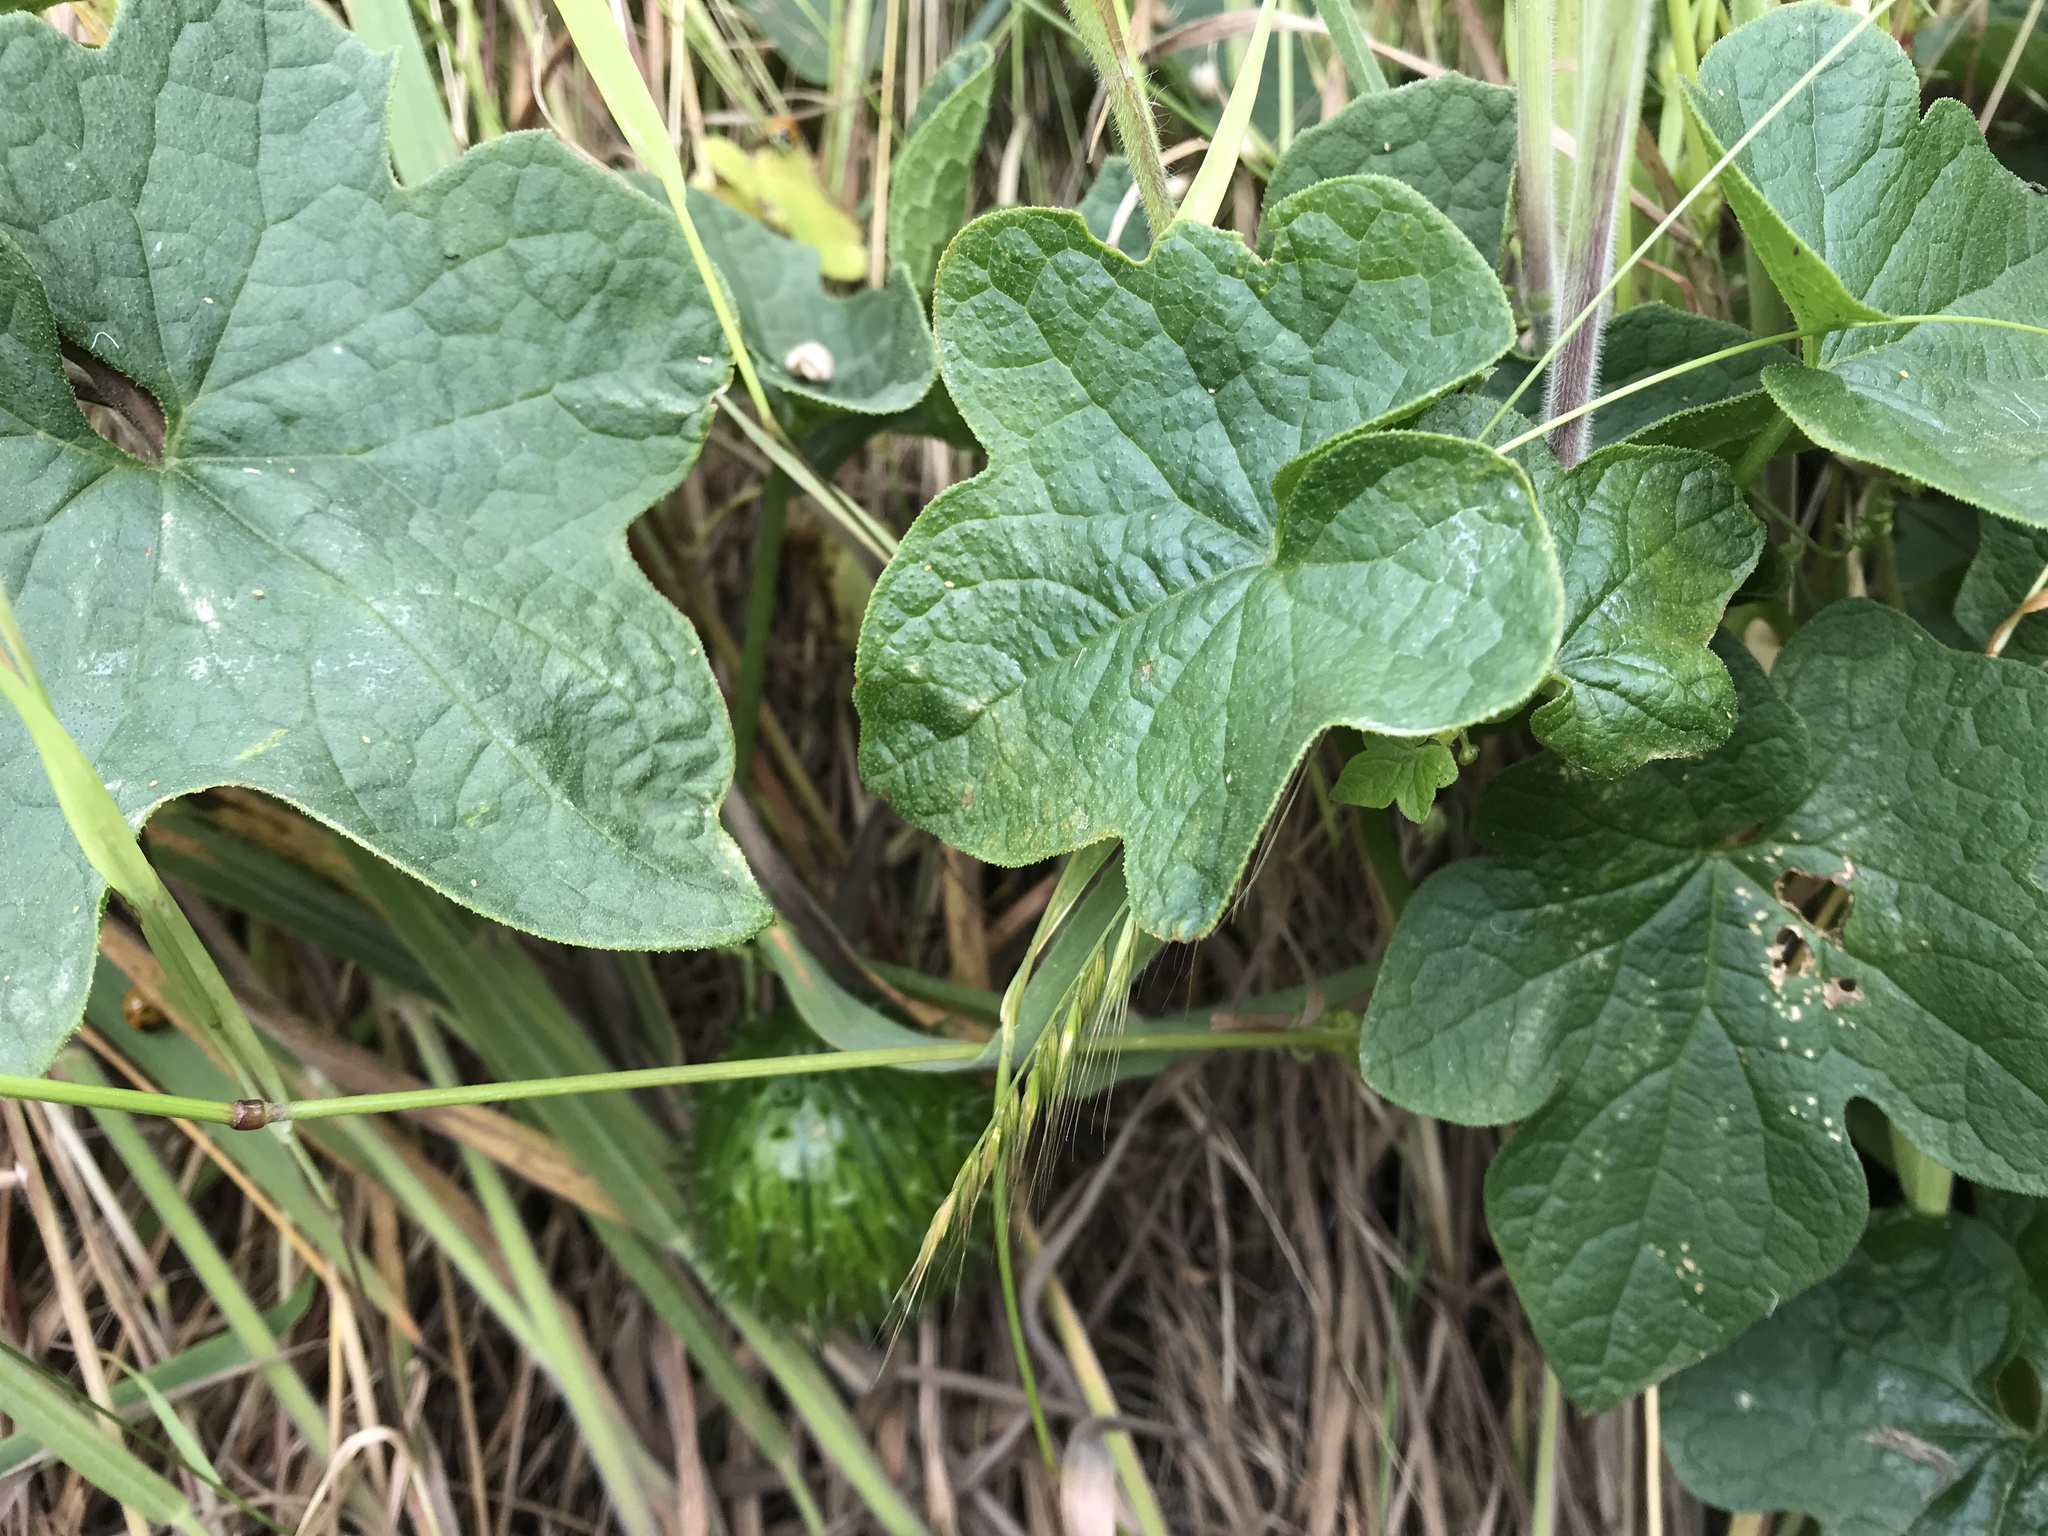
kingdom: Plantae
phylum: Tracheophyta
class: Magnoliopsida
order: Cucurbitales
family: Cucurbitaceae
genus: Marah
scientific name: Marah oregana
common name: Coastal manroot
